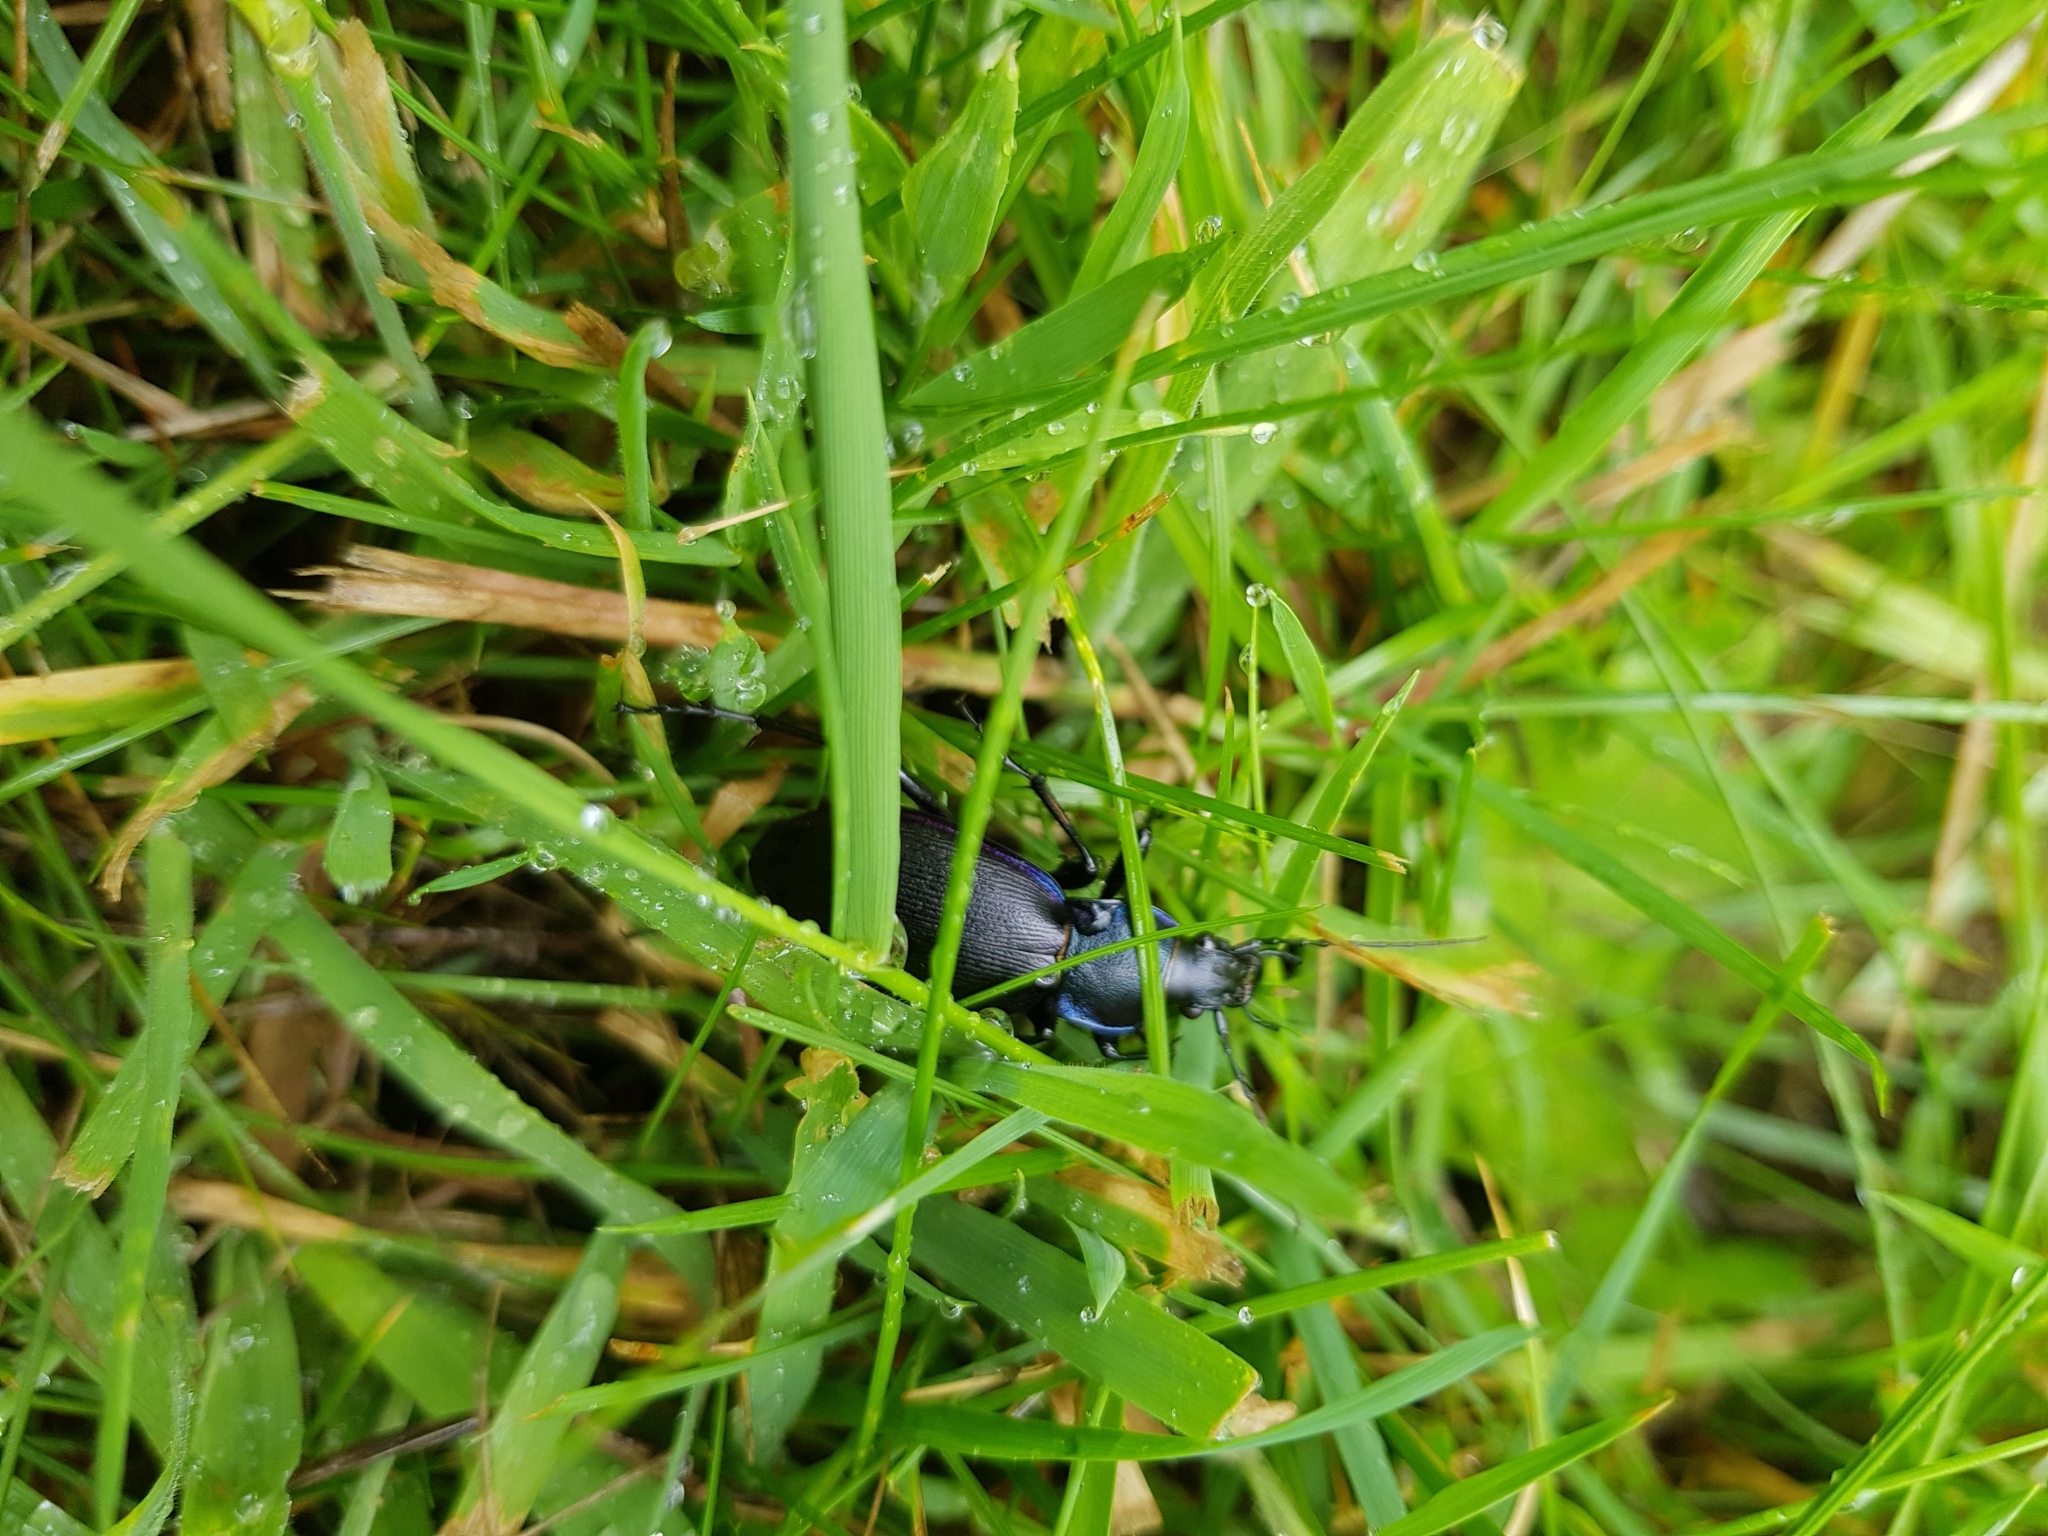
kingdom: Animalia
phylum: Arthropoda
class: Insecta
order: Coleoptera
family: Carabidae
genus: Carabus
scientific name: Carabus purpurascens
